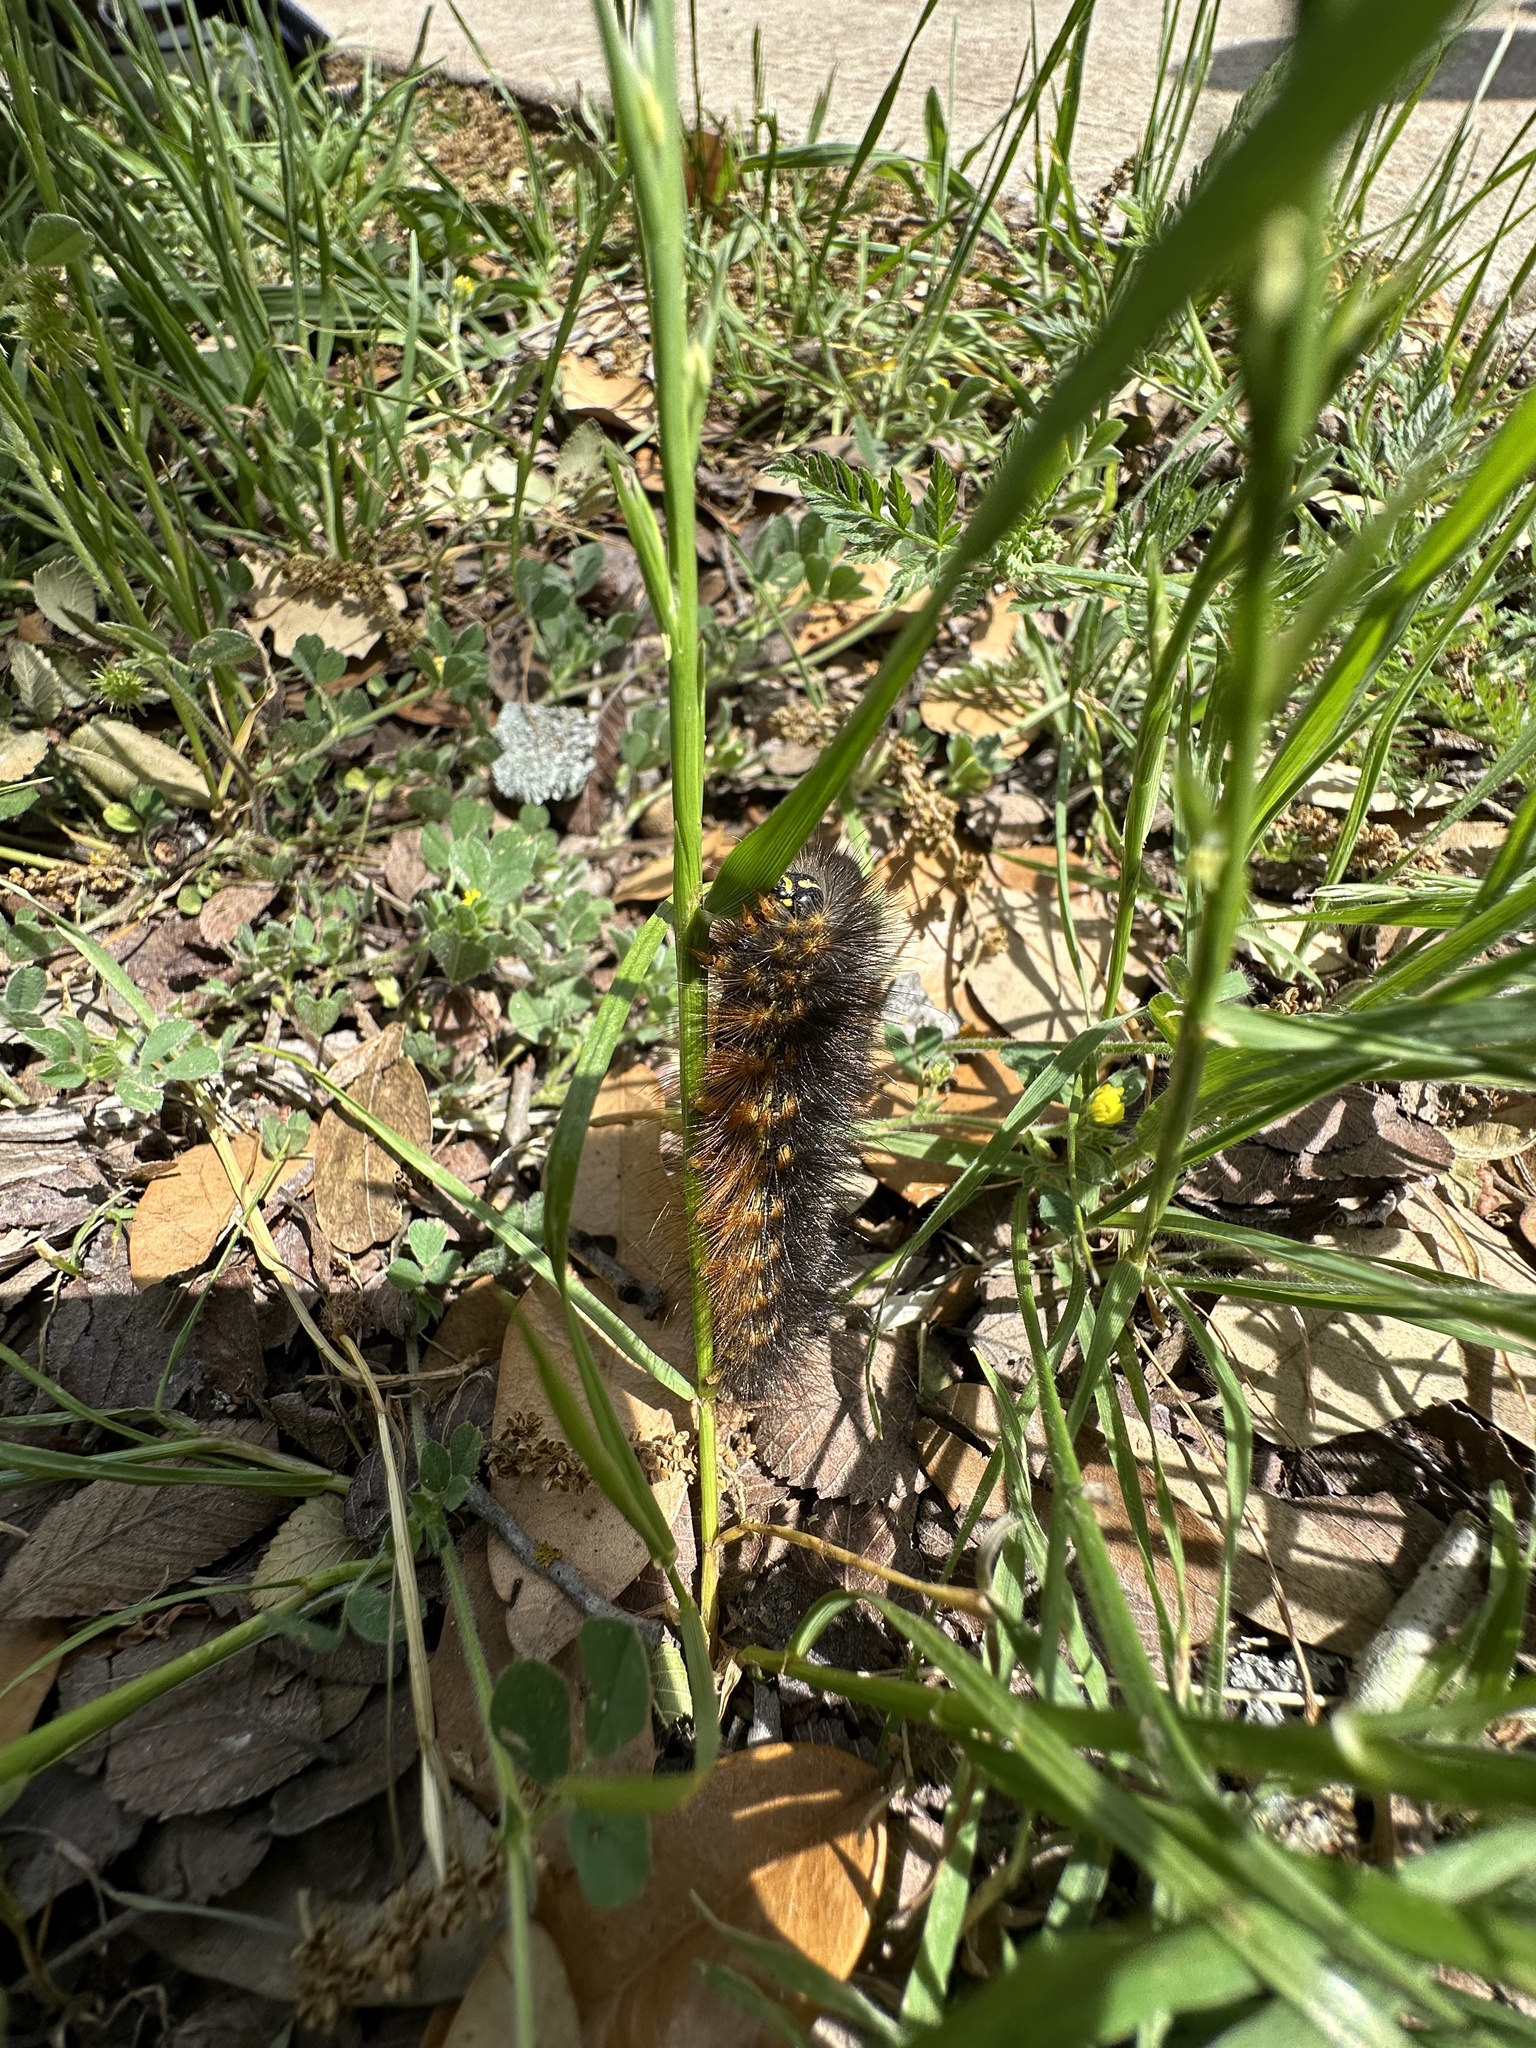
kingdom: Animalia
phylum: Arthropoda
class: Insecta
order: Lepidoptera
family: Erebidae
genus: Estigmene
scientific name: Estigmene acrea
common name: Salt marsh moth
